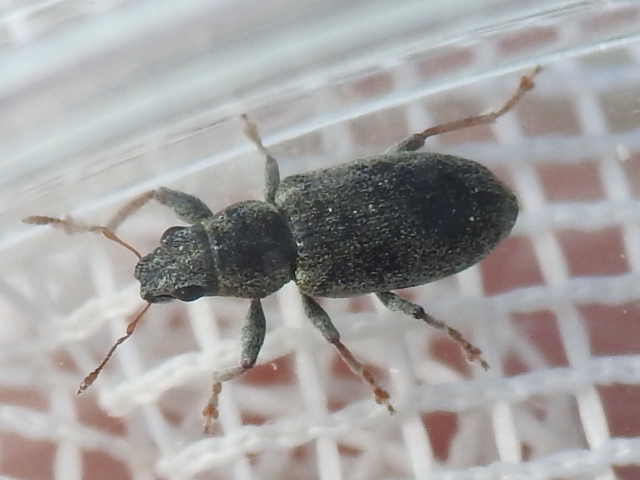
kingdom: Animalia
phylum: Arthropoda
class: Insecta
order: Coleoptera
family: Curculionidae
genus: Sitona
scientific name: Sitona cylindricollis
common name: Weevil
